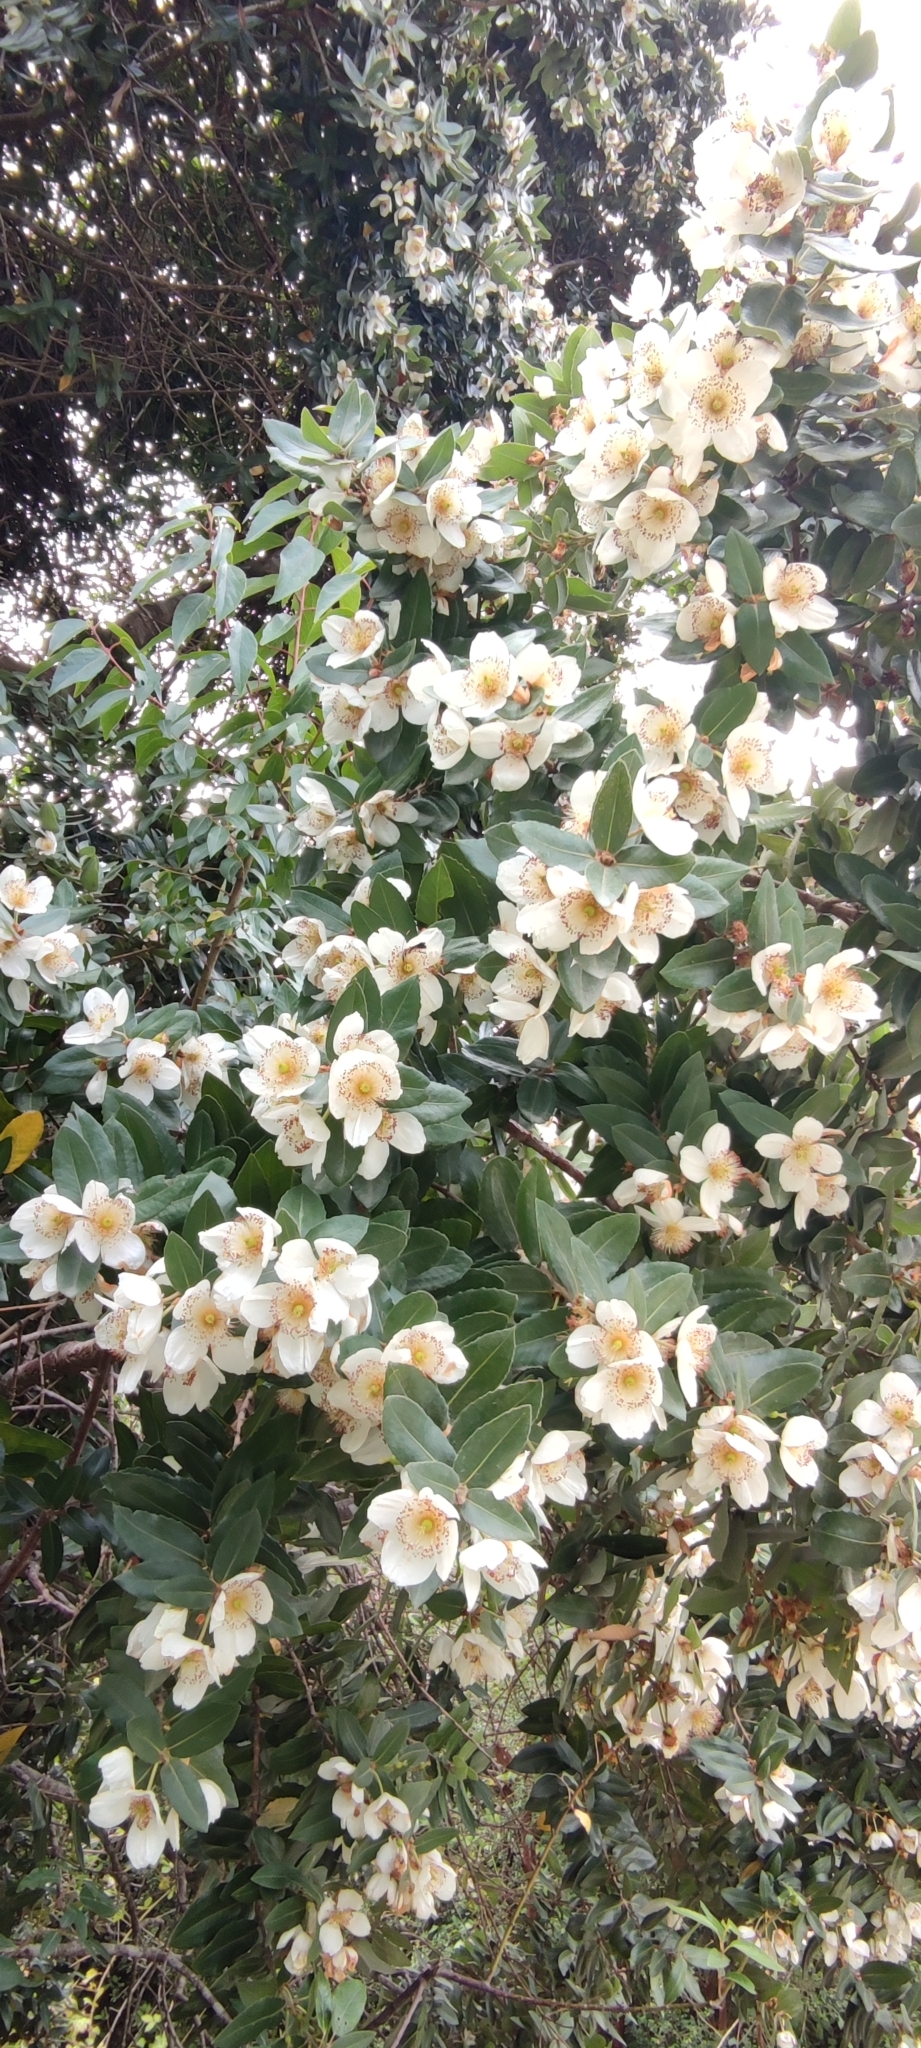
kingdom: Plantae
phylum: Tracheophyta
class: Magnoliopsida
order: Oxalidales
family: Cunoniaceae
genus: Eucryphia
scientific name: Eucryphia cordifolia
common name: Ulmo
